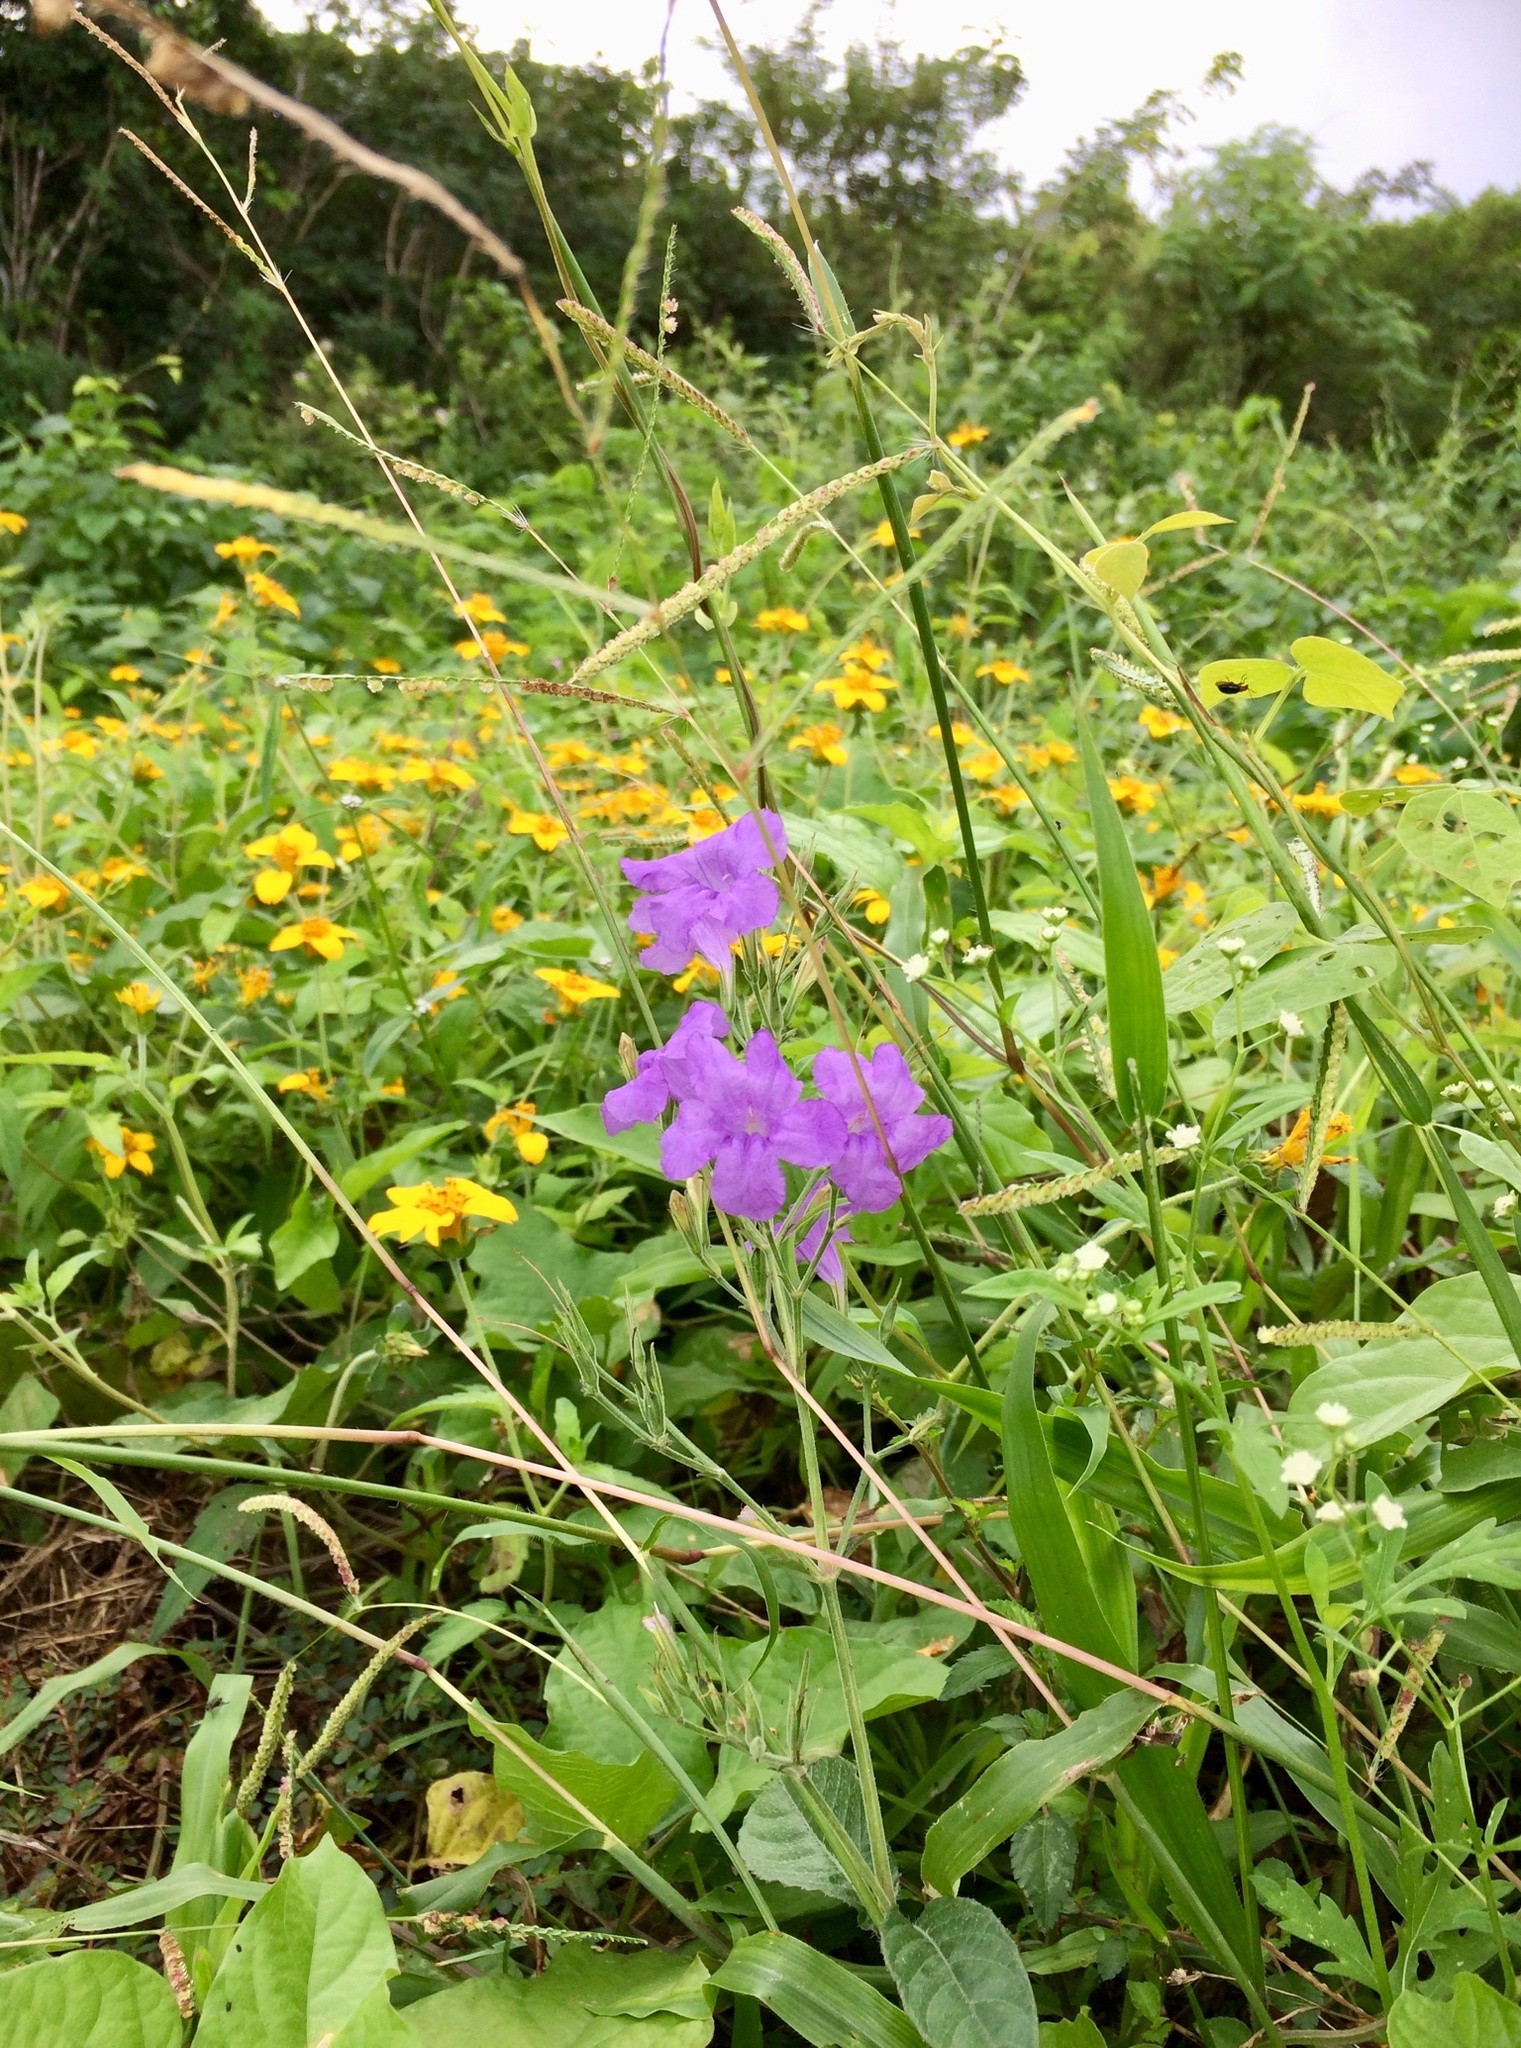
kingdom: Plantae
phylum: Tracheophyta
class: Magnoliopsida
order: Lamiales
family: Acanthaceae
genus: Ruellia
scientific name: Ruellia ciliatiflora
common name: Hairyflower wild petunia
